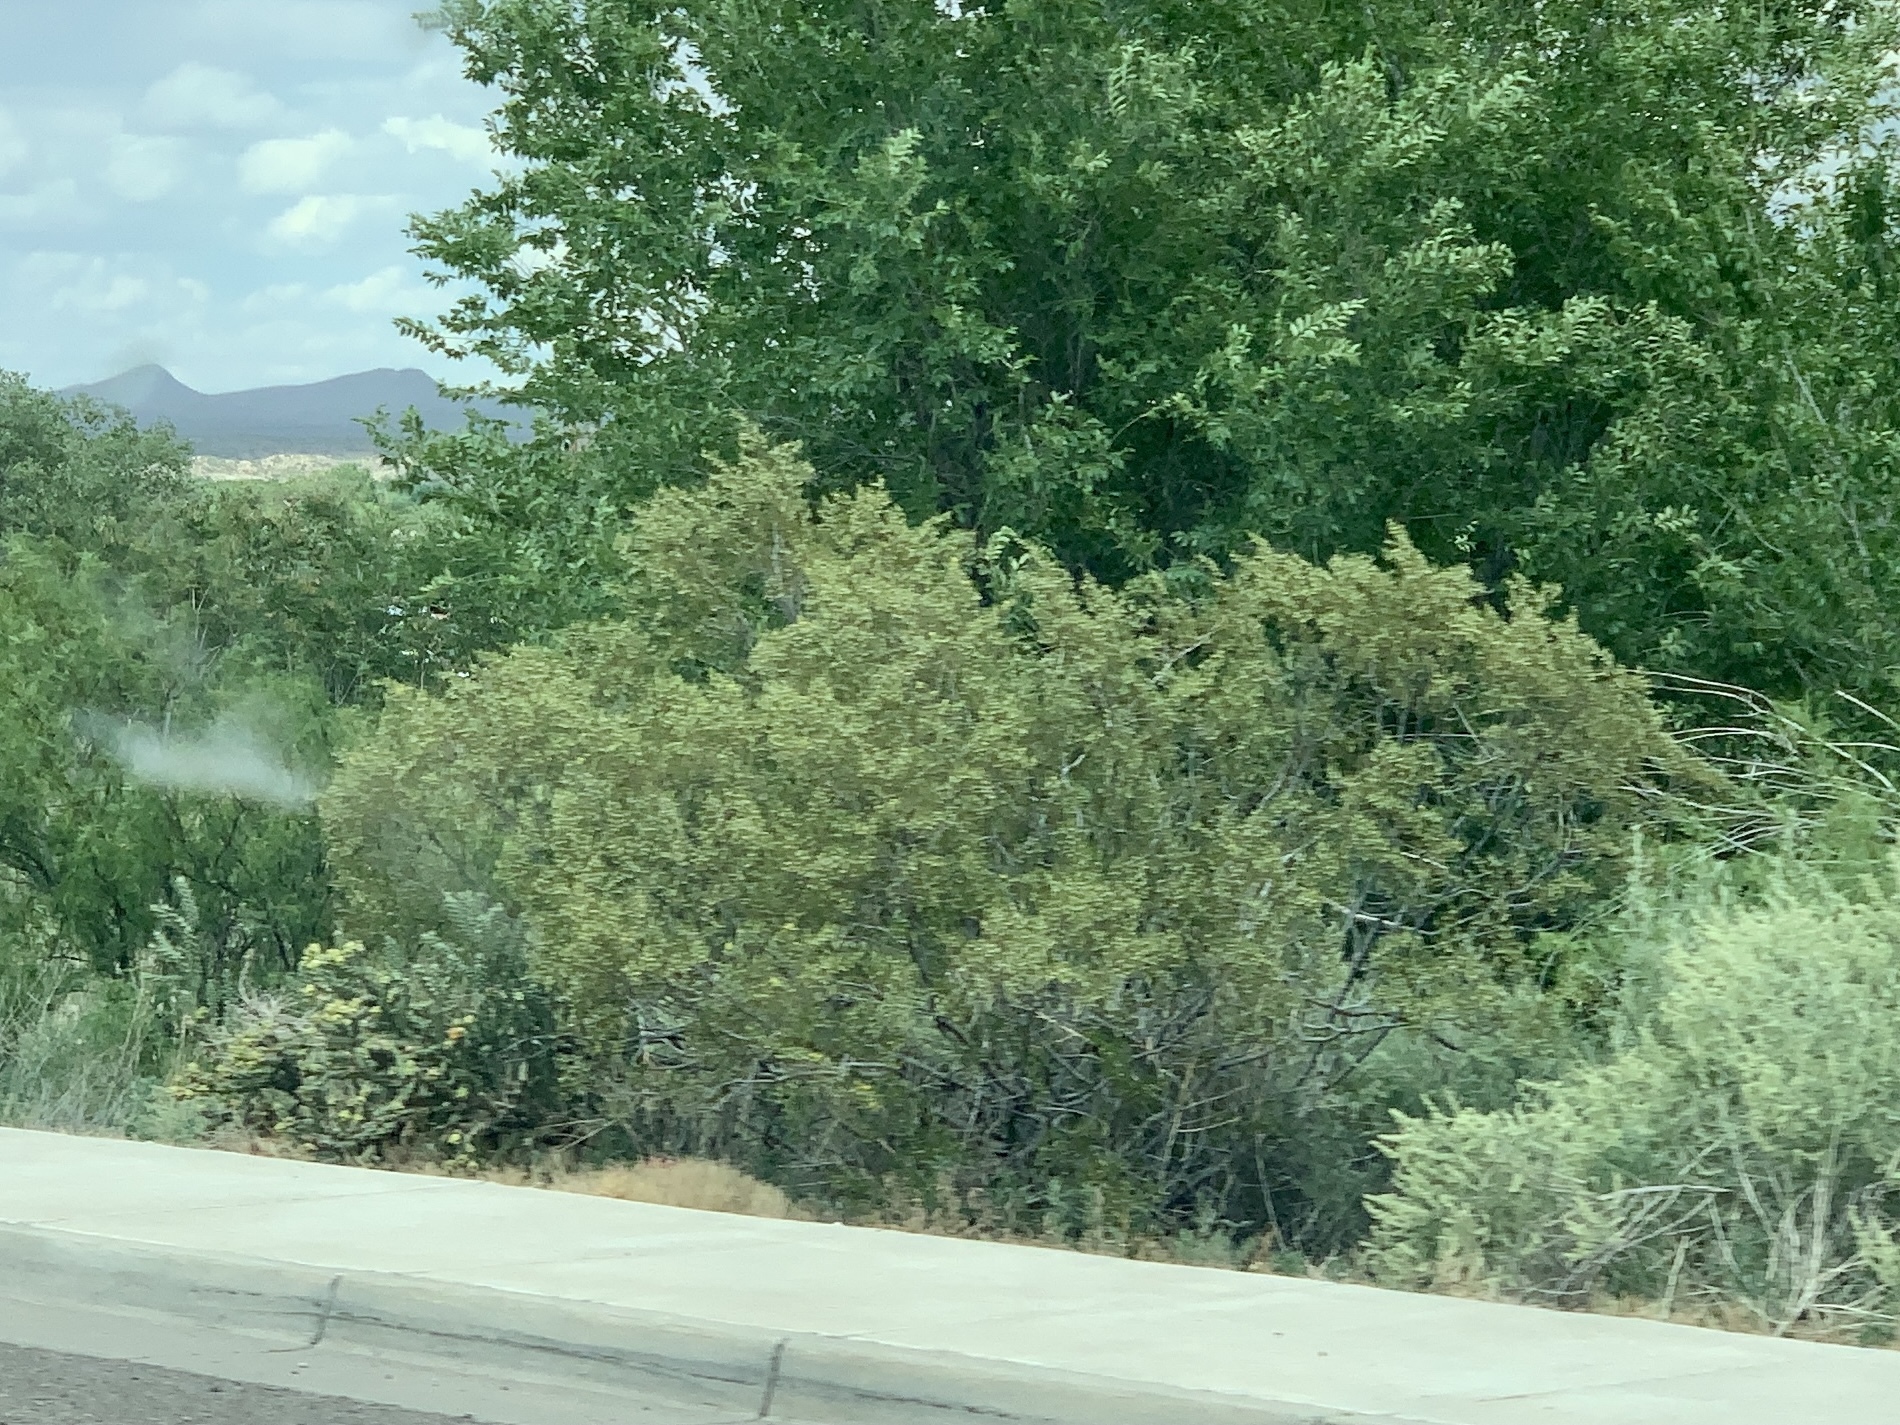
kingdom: Plantae
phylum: Tracheophyta
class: Magnoliopsida
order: Zygophyllales
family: Zygophyllaceae
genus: Larrea
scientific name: Larrea tridentata
